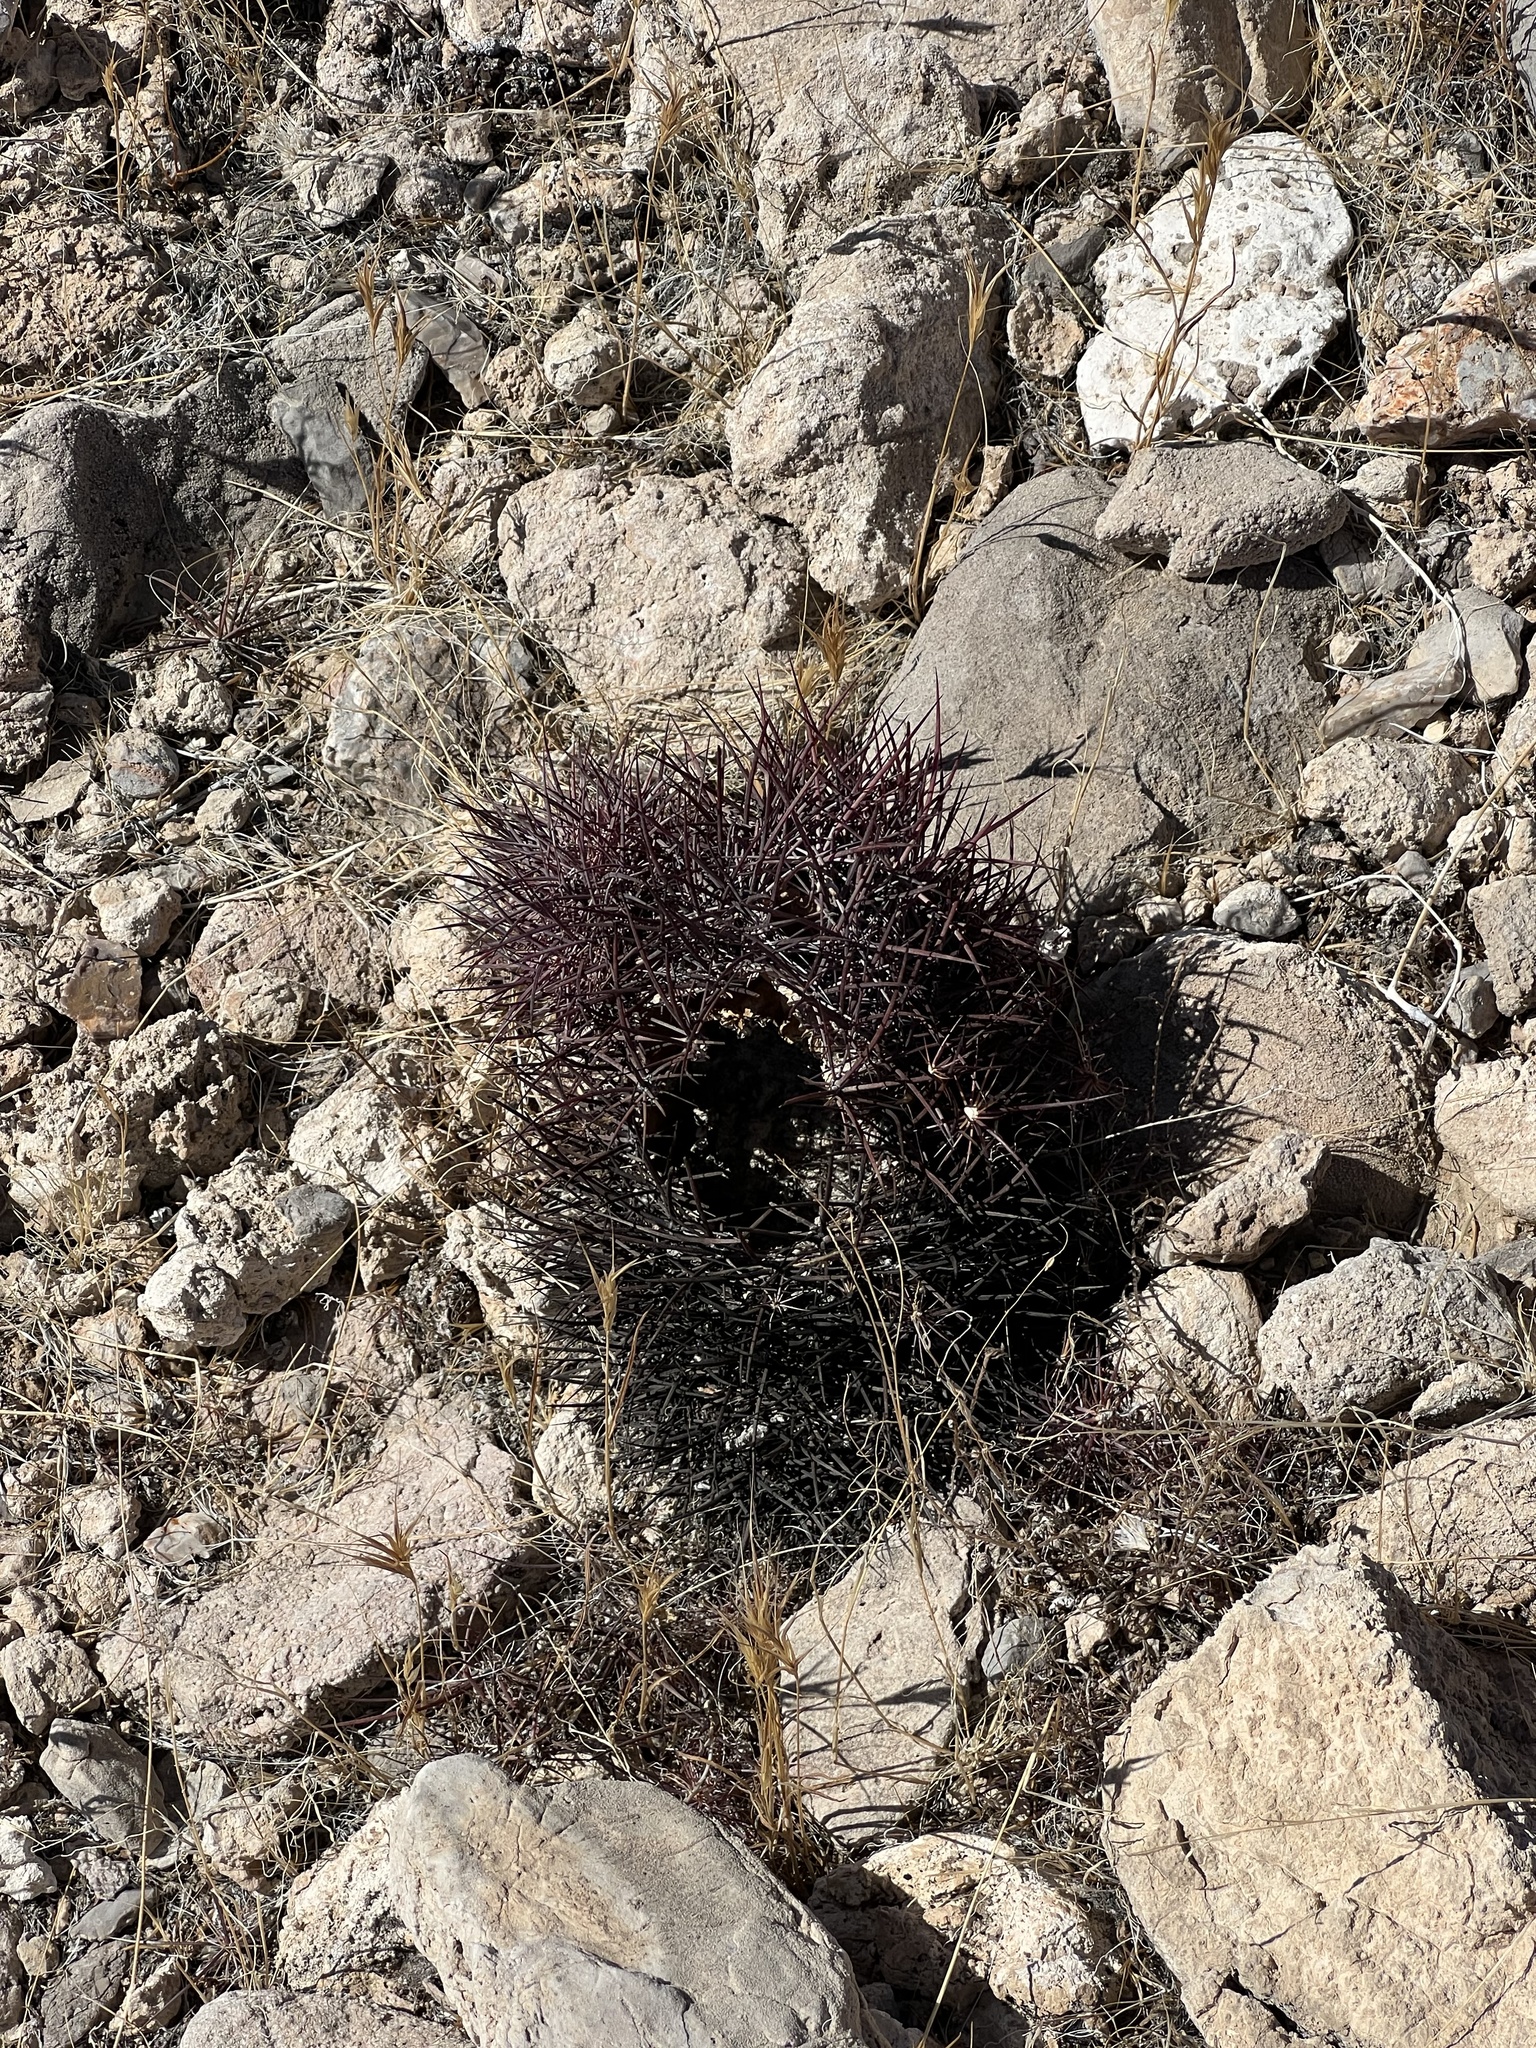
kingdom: Plantae
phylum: Tracheophyta
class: Magnoliopsida
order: Caryophyllales
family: Cactaceae
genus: Sclerocactus
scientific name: Sclerocactus johnsonii
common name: Eight-spine fishhook cactus
